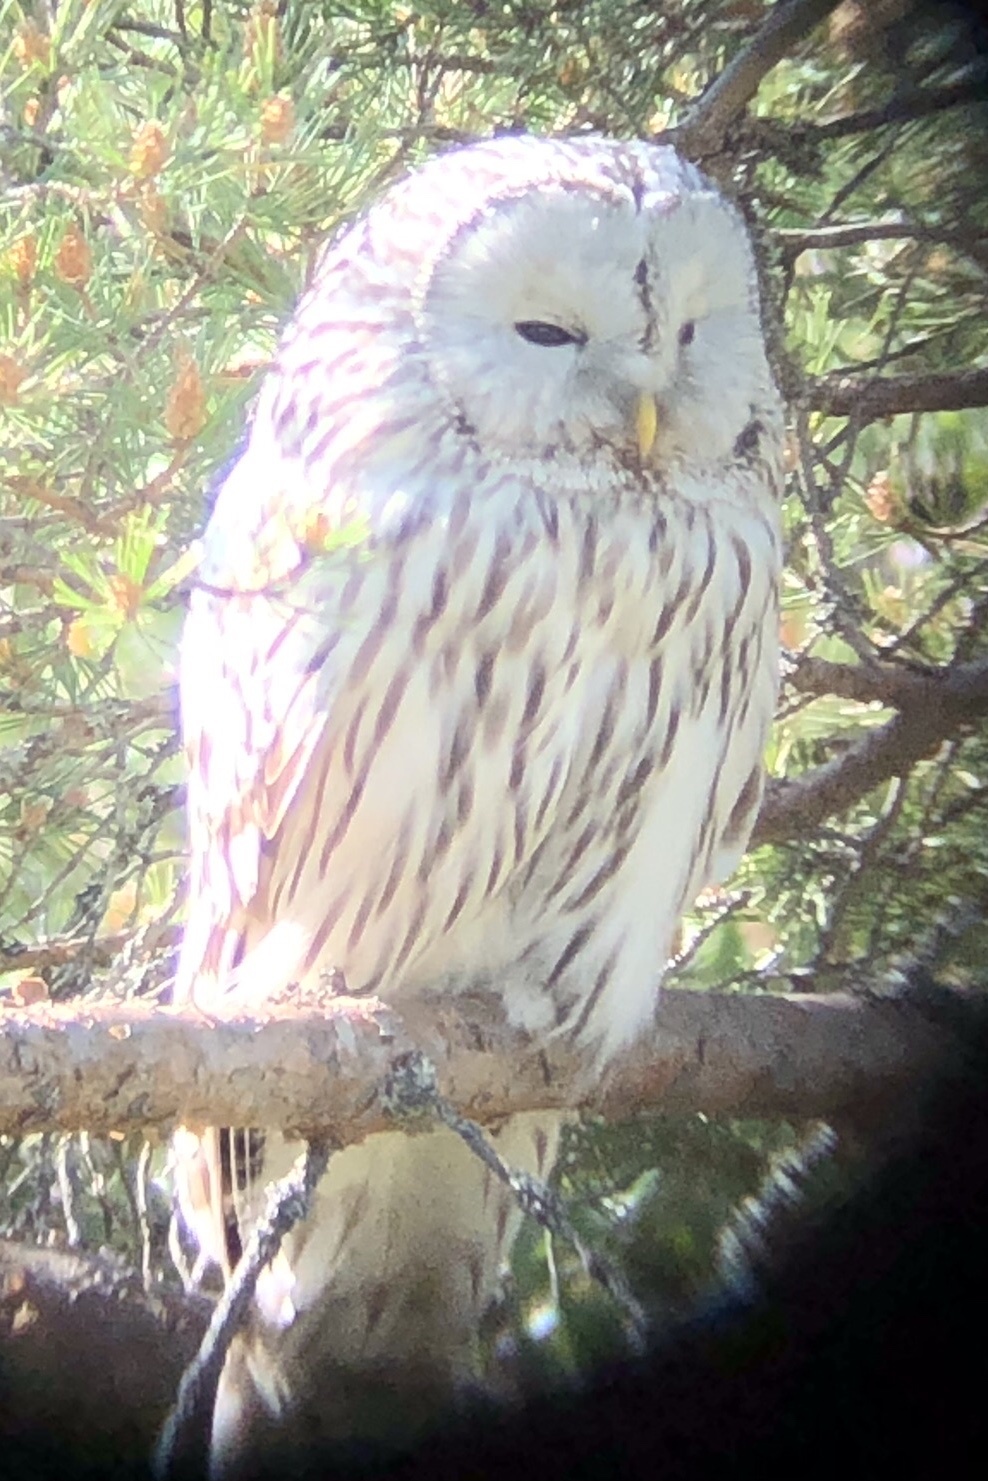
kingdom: Animalia
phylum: Chordata
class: Aves
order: Strigiformes
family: Strigidae
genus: Strix
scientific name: Strix uralensis
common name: Ural owl
